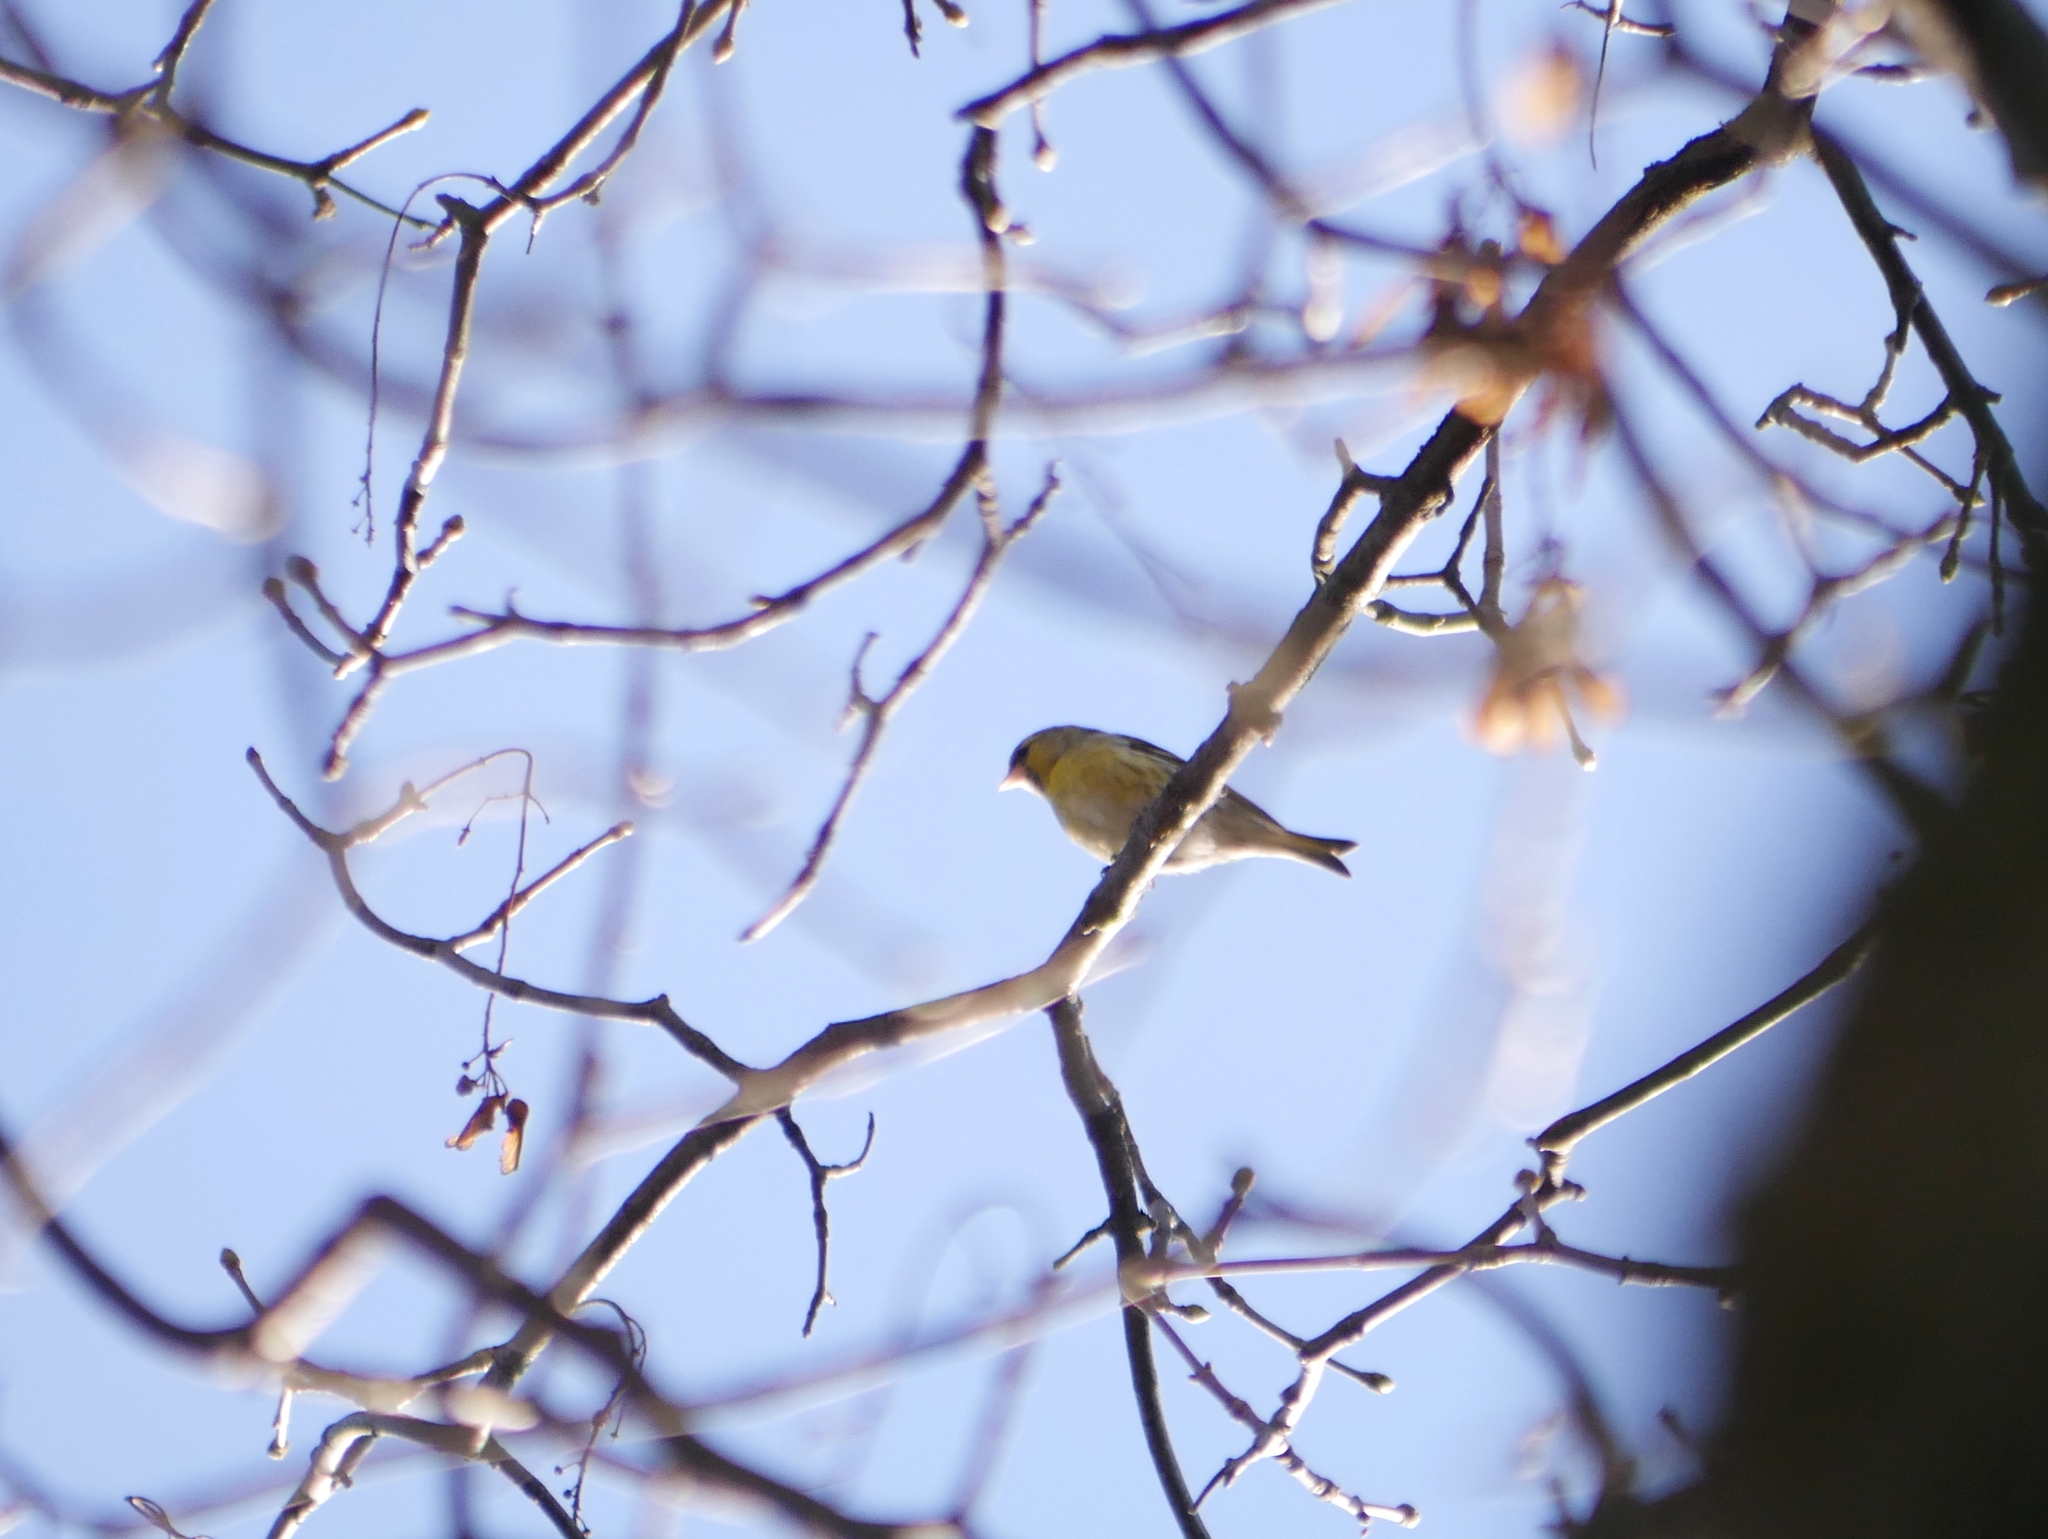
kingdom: Animalia
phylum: Chordata
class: Aves
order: Passeriformes
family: Fringillidae
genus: Spinus
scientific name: Spinus spinus
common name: Eurasian siskin
